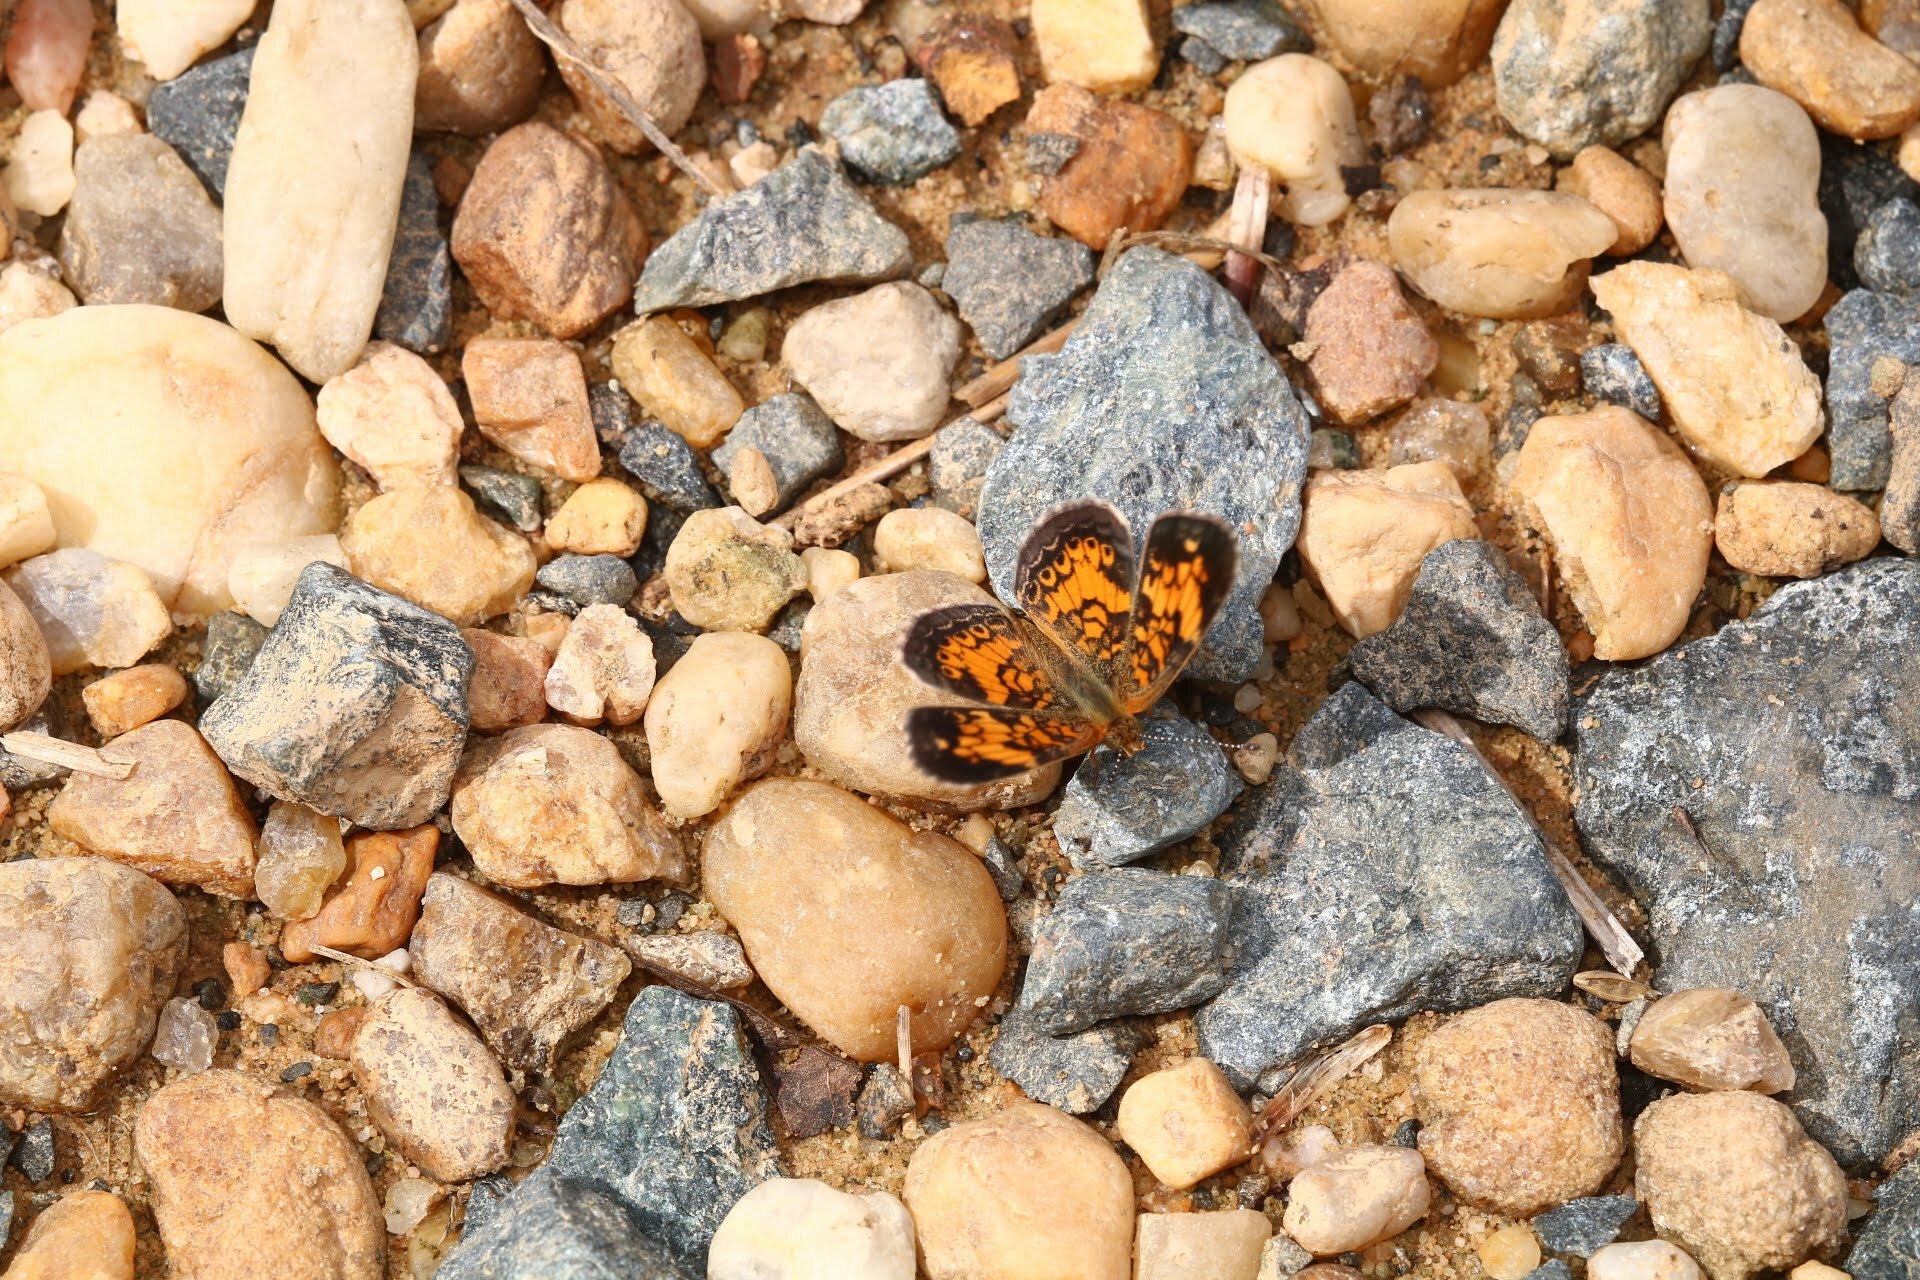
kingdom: Animalia
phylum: Arthropoda
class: Insecta
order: Lepidoptera
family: Nymphalidae
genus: Phyciodes
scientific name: Phyciodes tharos
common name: Pearl crescent
